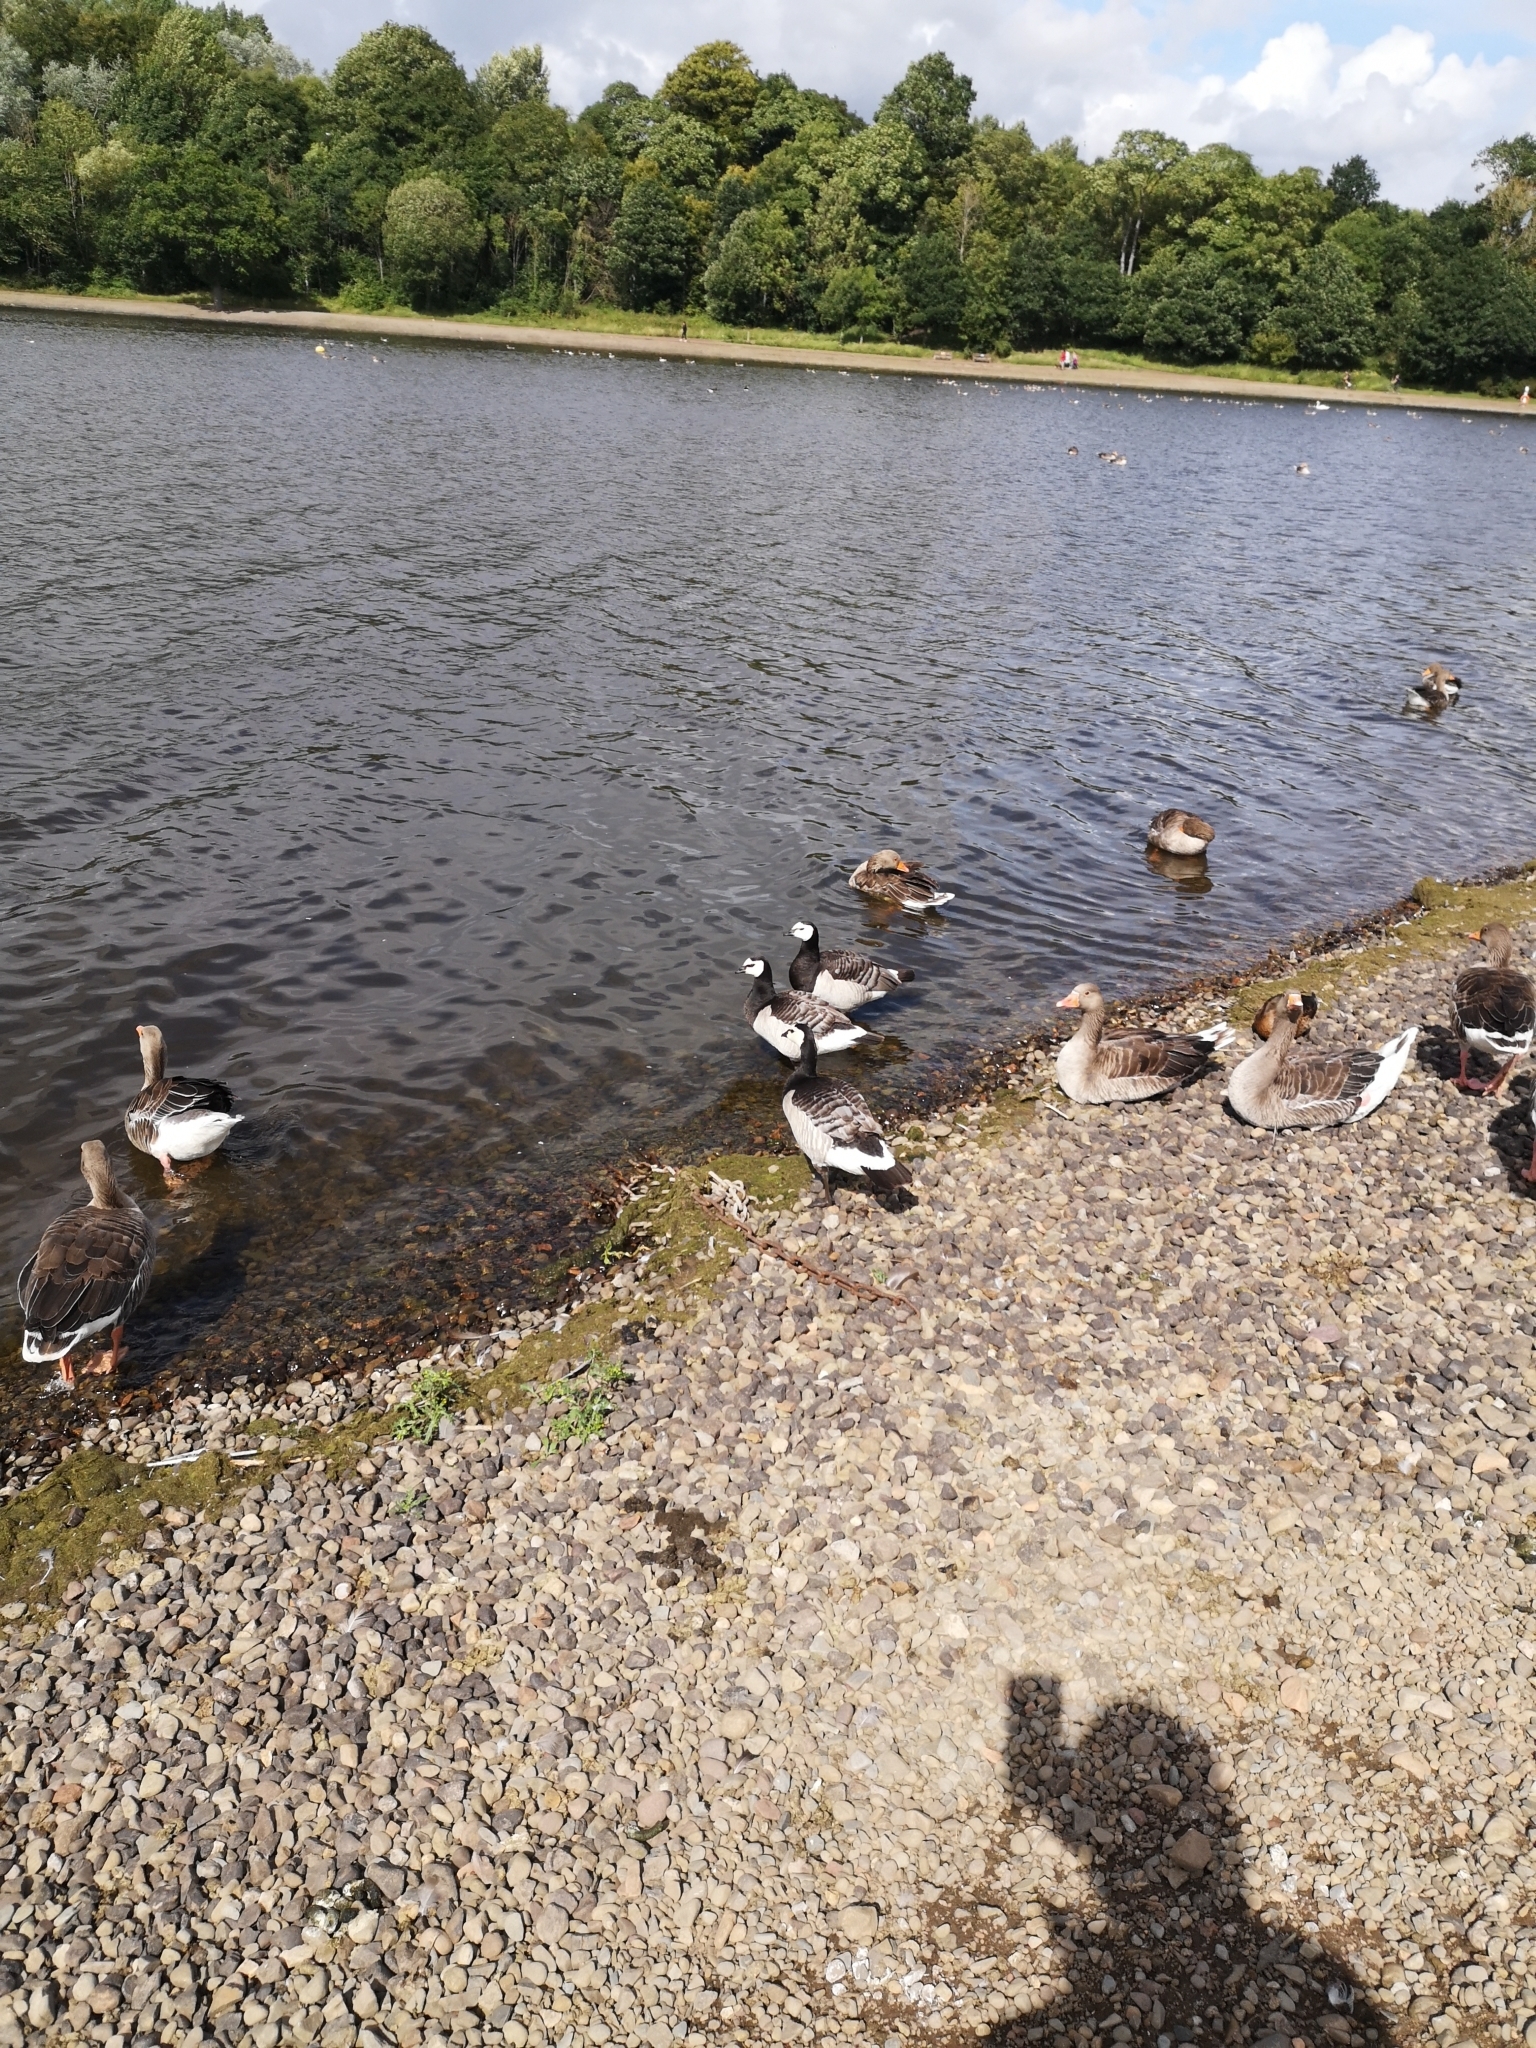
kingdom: Animalia
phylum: Chordata
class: Aves
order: Anseriformes
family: Anatidae
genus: Branta
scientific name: Branta leucopsis
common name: Barnacle goose
